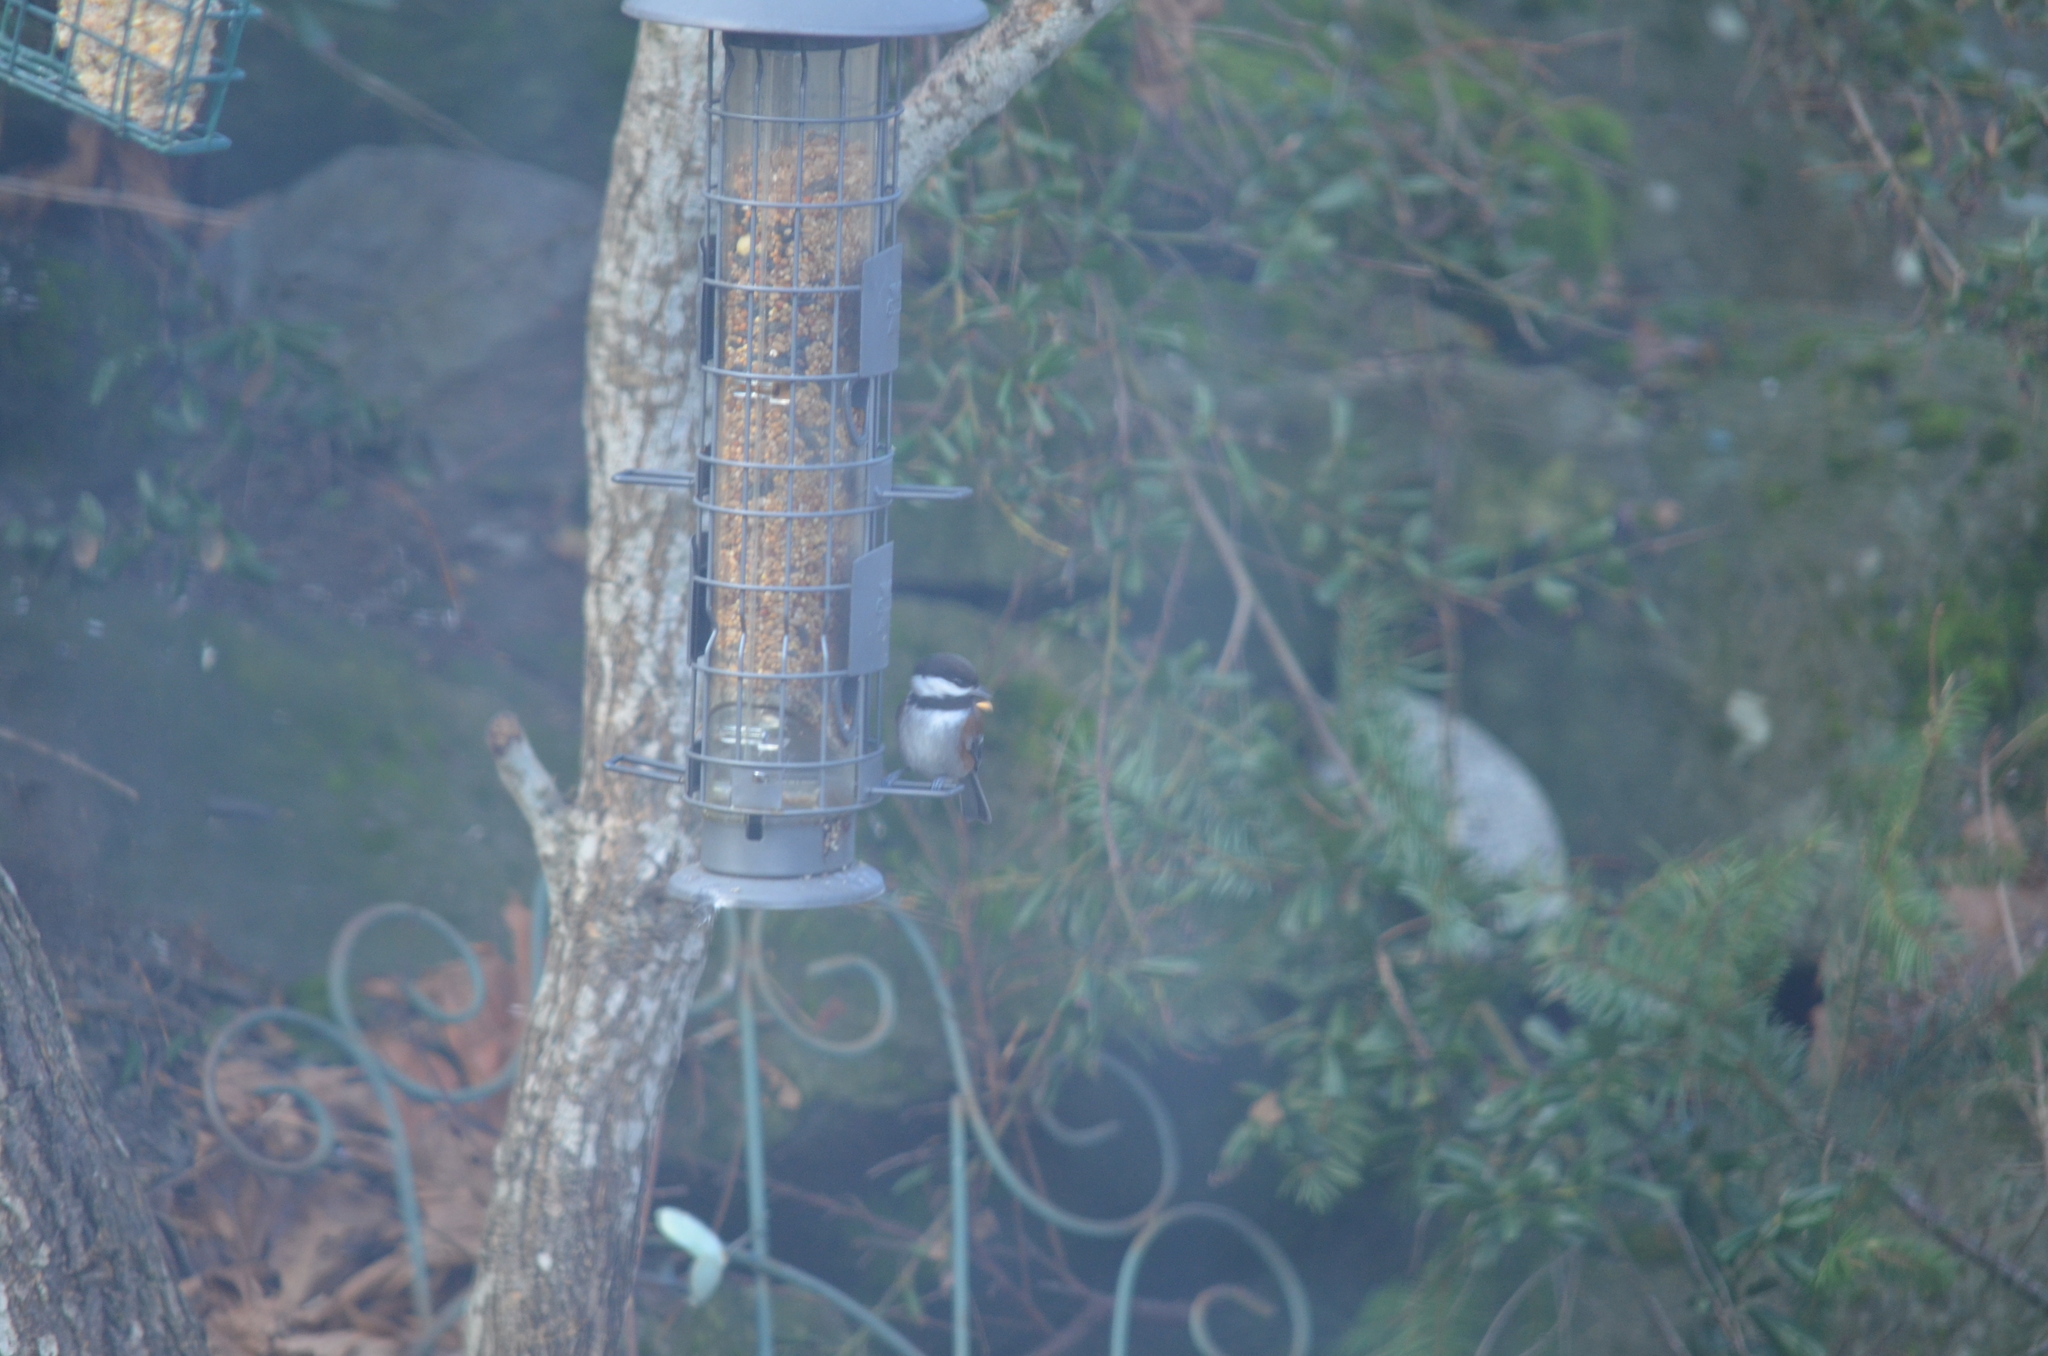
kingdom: Animalia
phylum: Chordata
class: Aves
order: Passeriformes
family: Paridae
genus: Poecile
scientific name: Poecile rufescens
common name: Chestnut-backed chickadee
